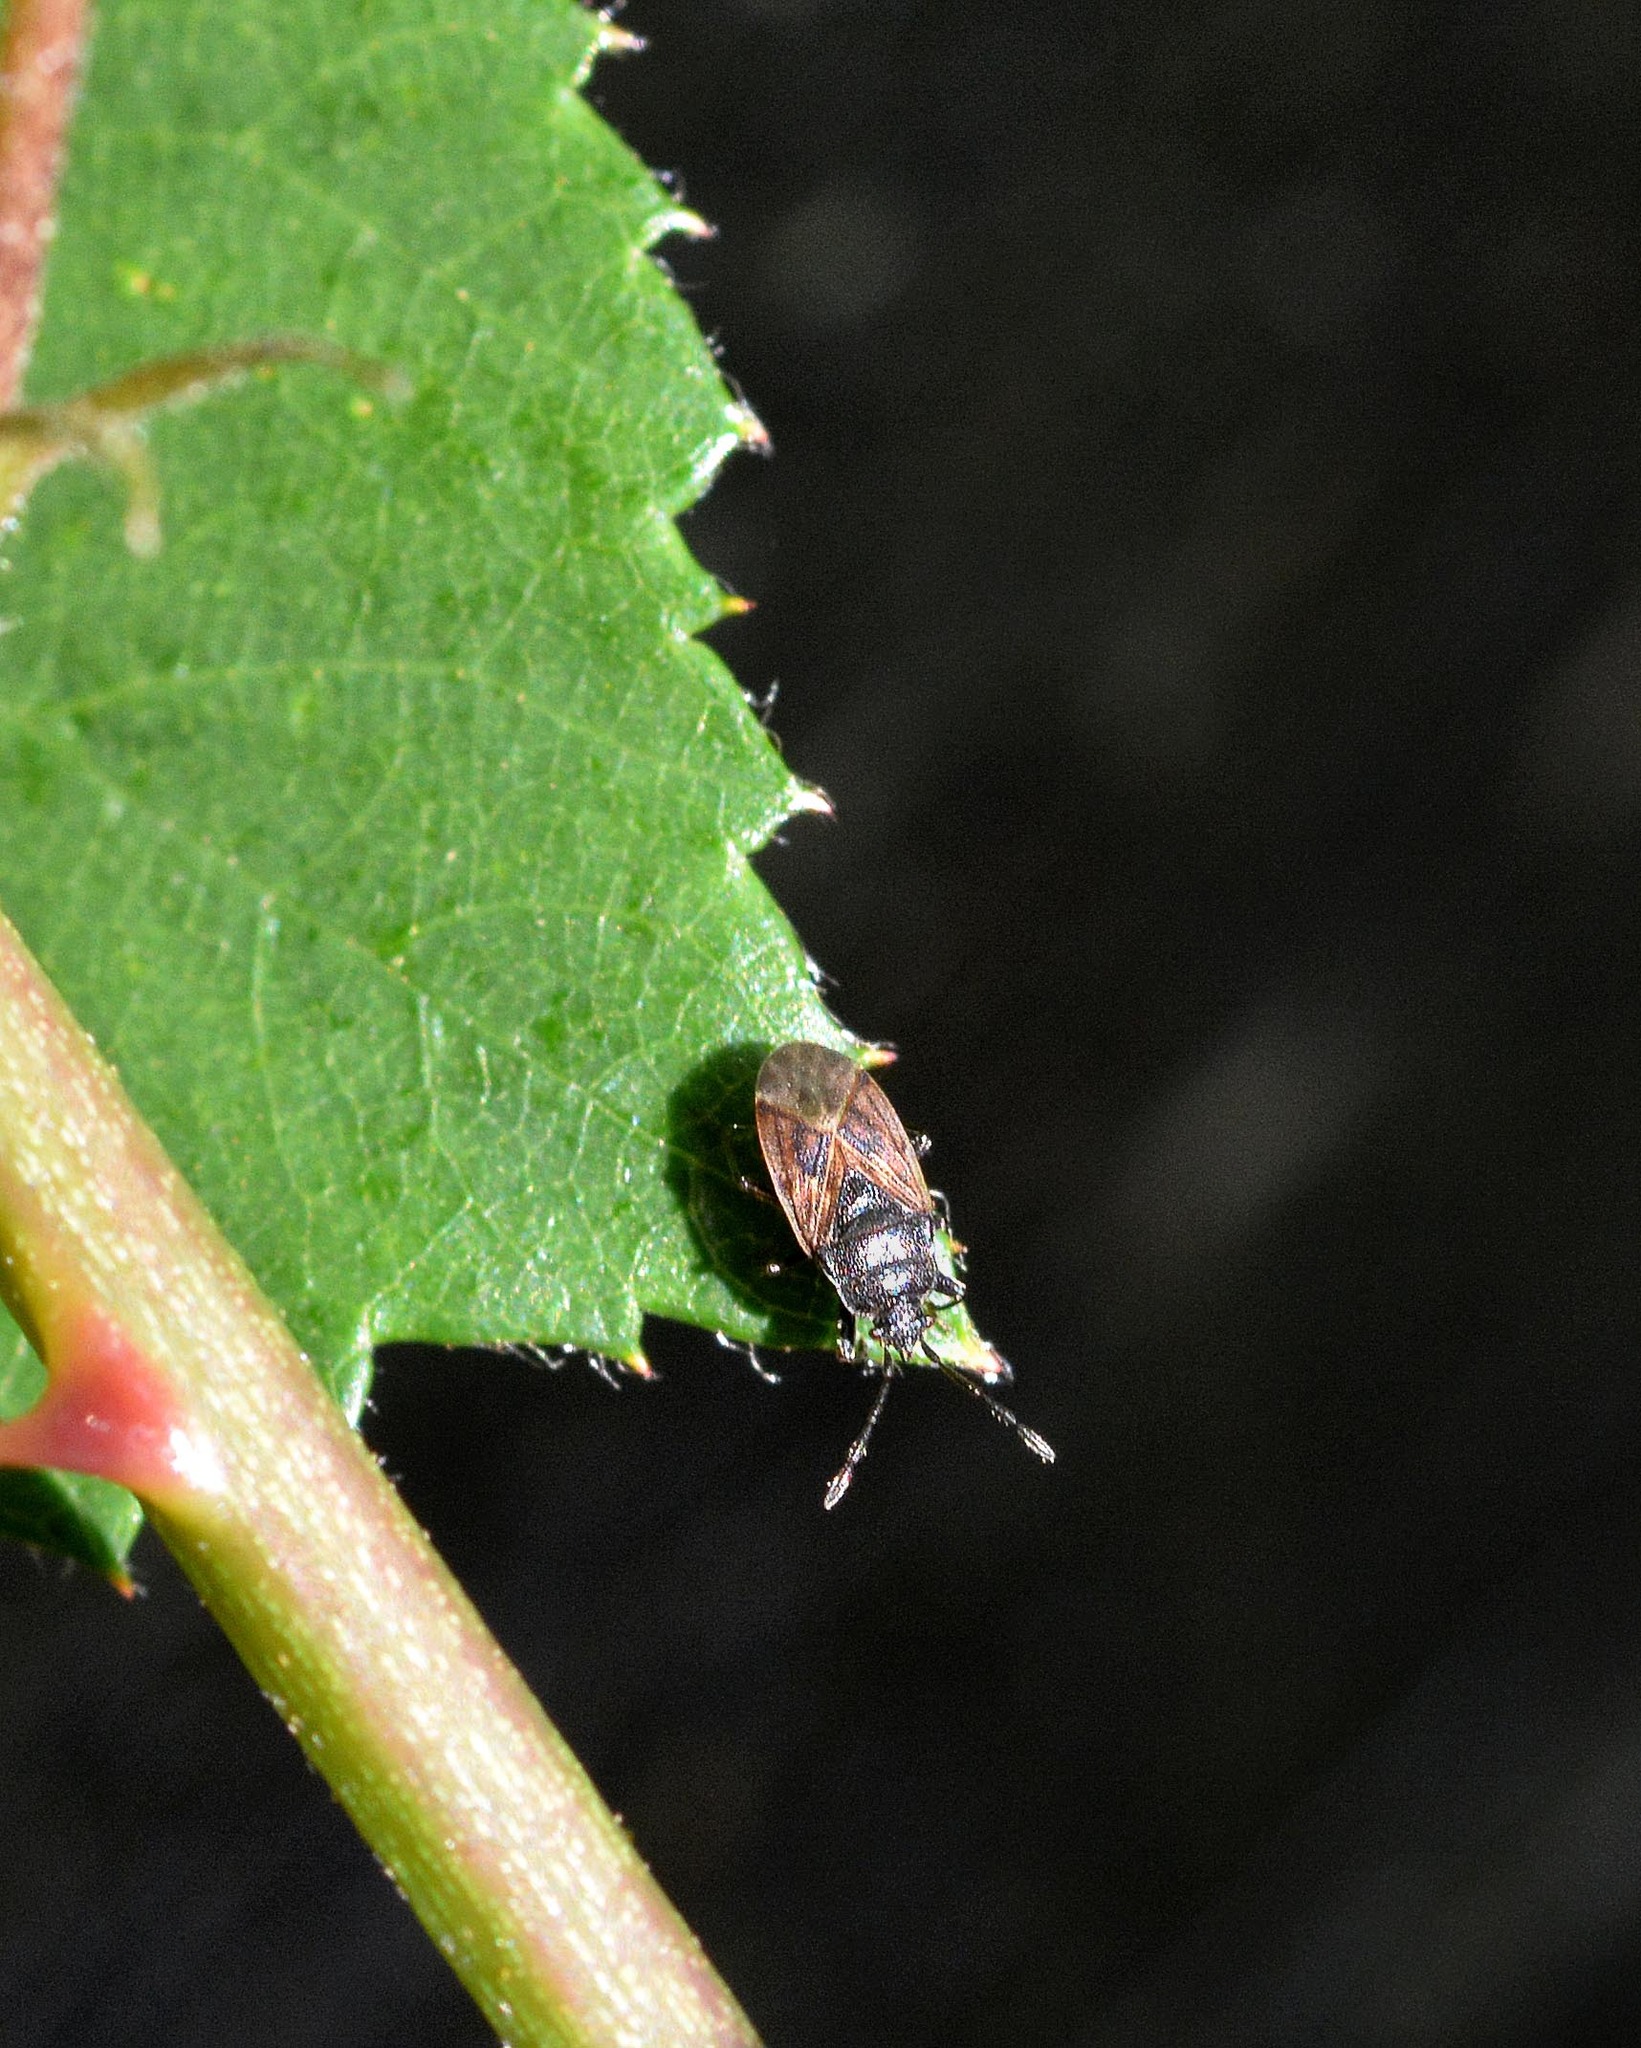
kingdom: Animalia
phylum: Arthropoda
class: Insecta
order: Hemiptera
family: Rhyparochromidae
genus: Drymus
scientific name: Drymus sylvaticus
